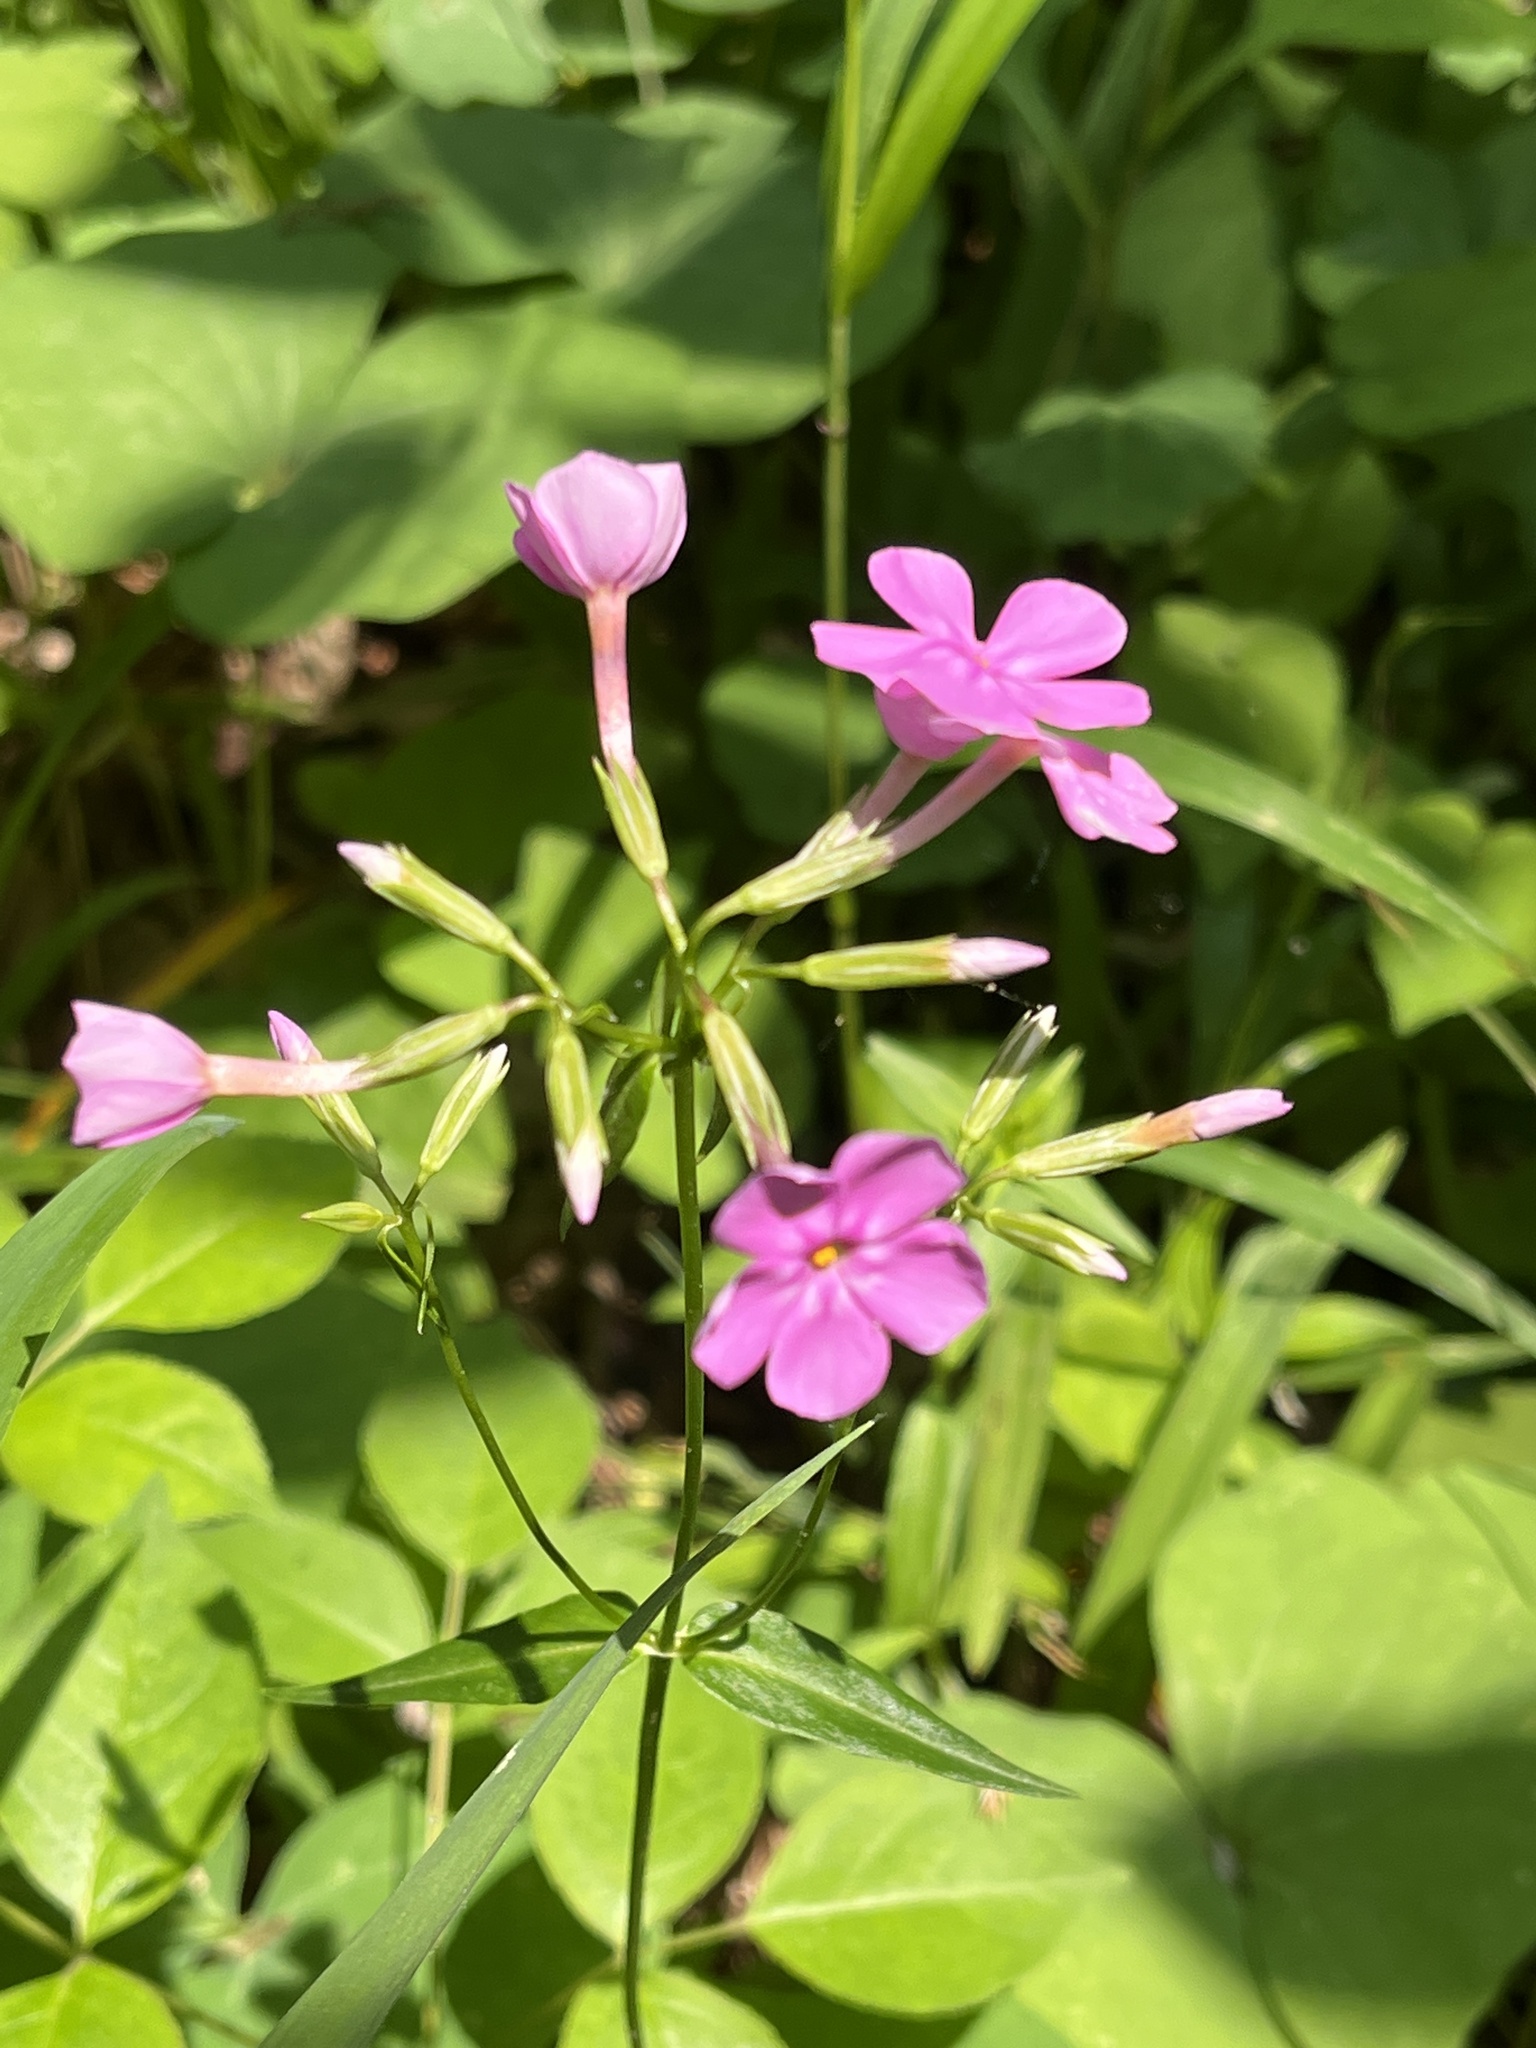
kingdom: Plantae
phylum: Tracheophyta
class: Magnoliopsida
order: Ericales
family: Polemoniaceae
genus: Phlox
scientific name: Phlox glaberrima
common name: Smooth phlox
